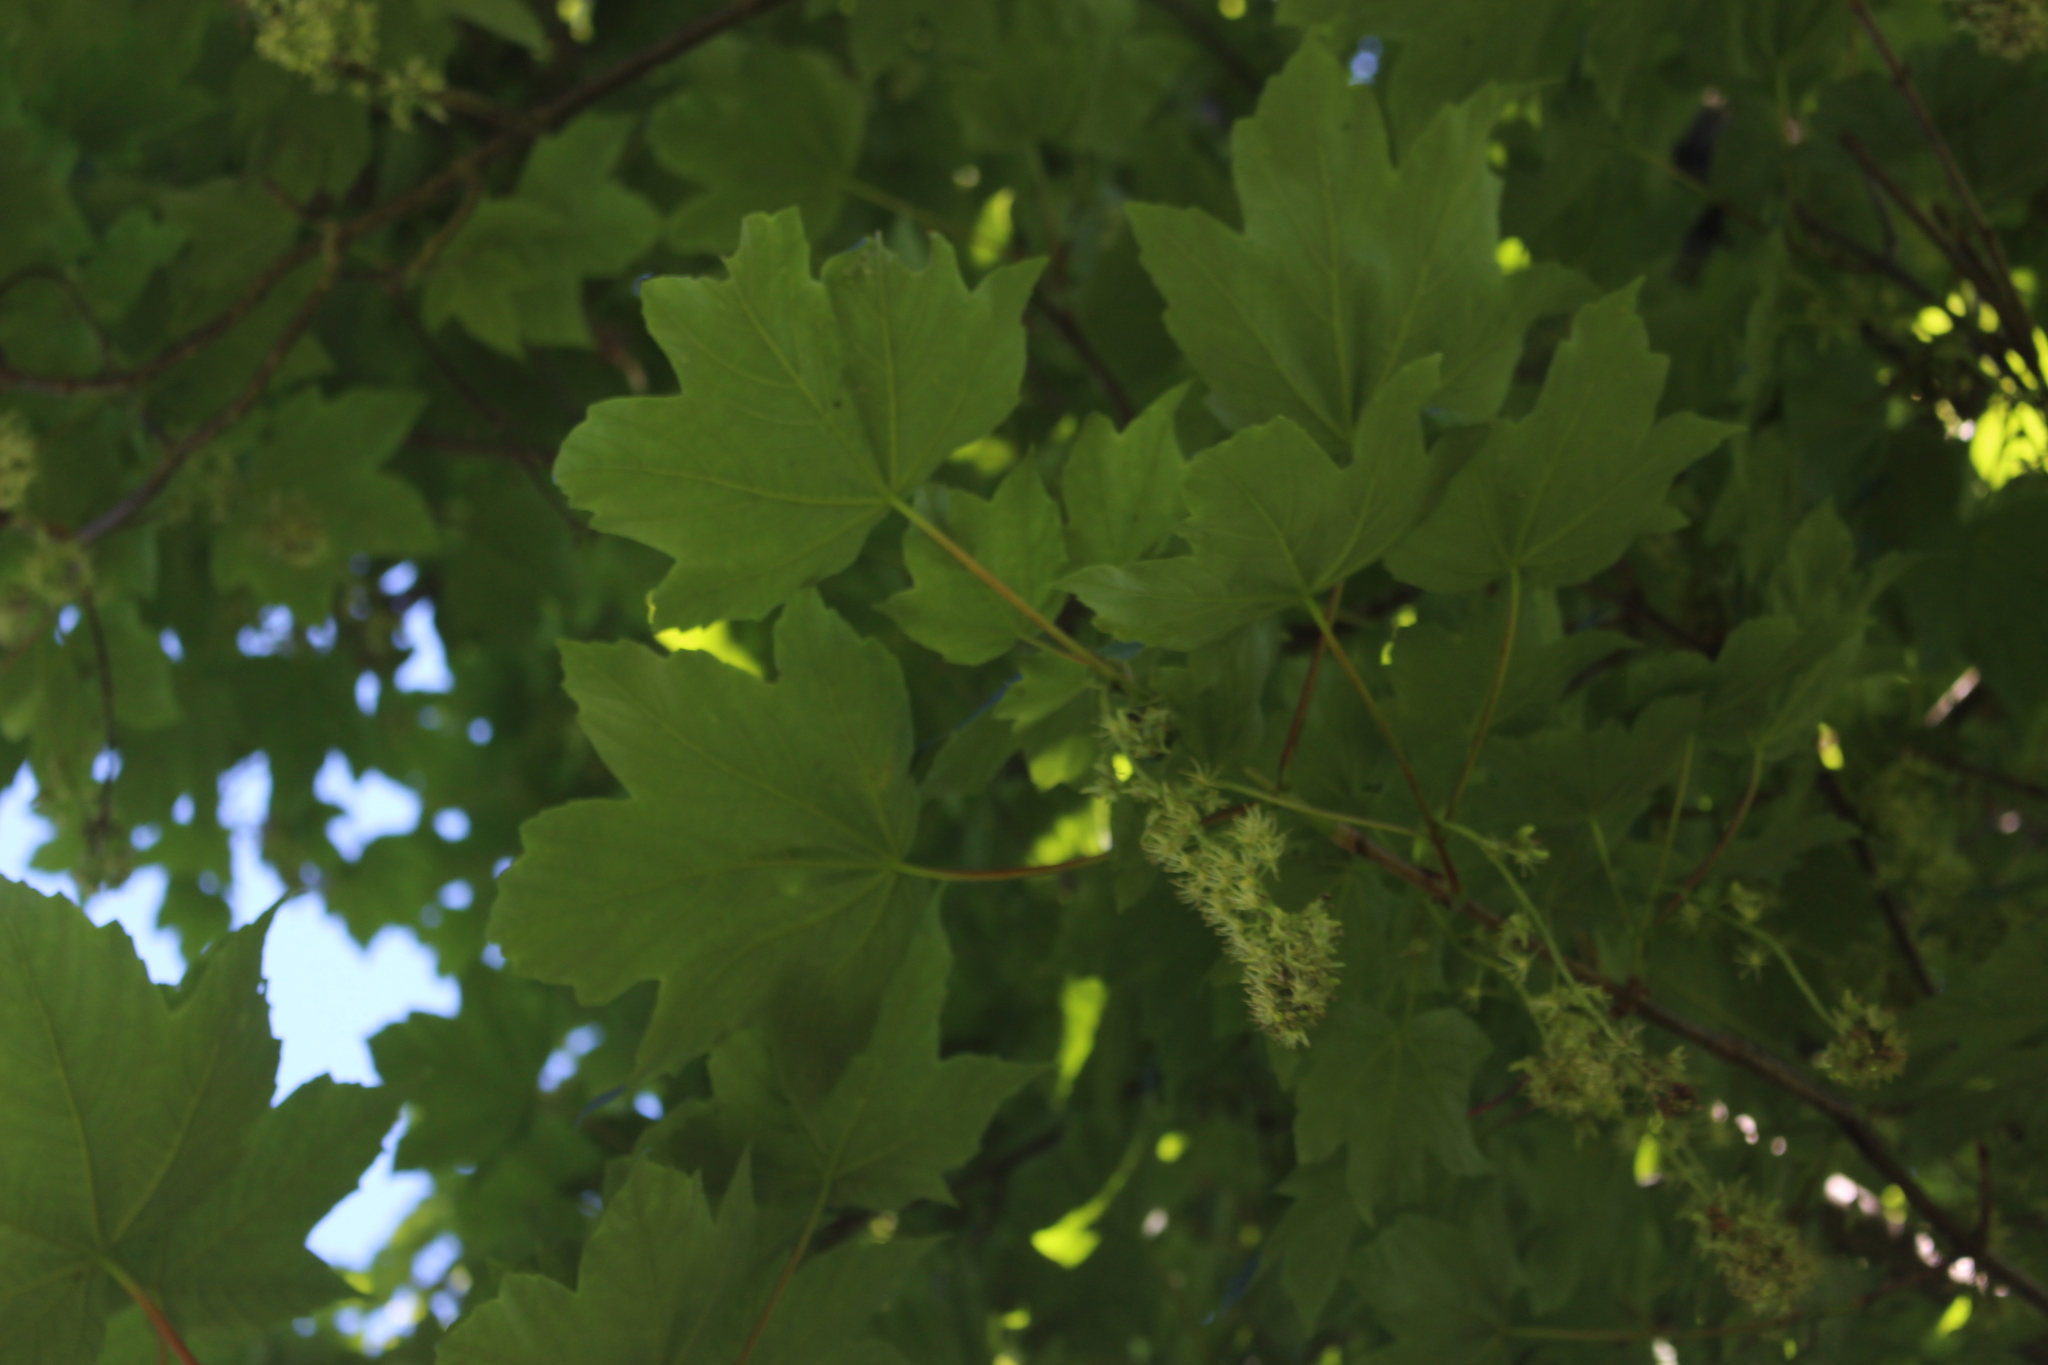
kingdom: Plantae
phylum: Tracheophyta
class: Magnoliopsida
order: Sapindales
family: Sapindaceae
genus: Acer
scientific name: Acer pseudoplatanus
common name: Sycamore
